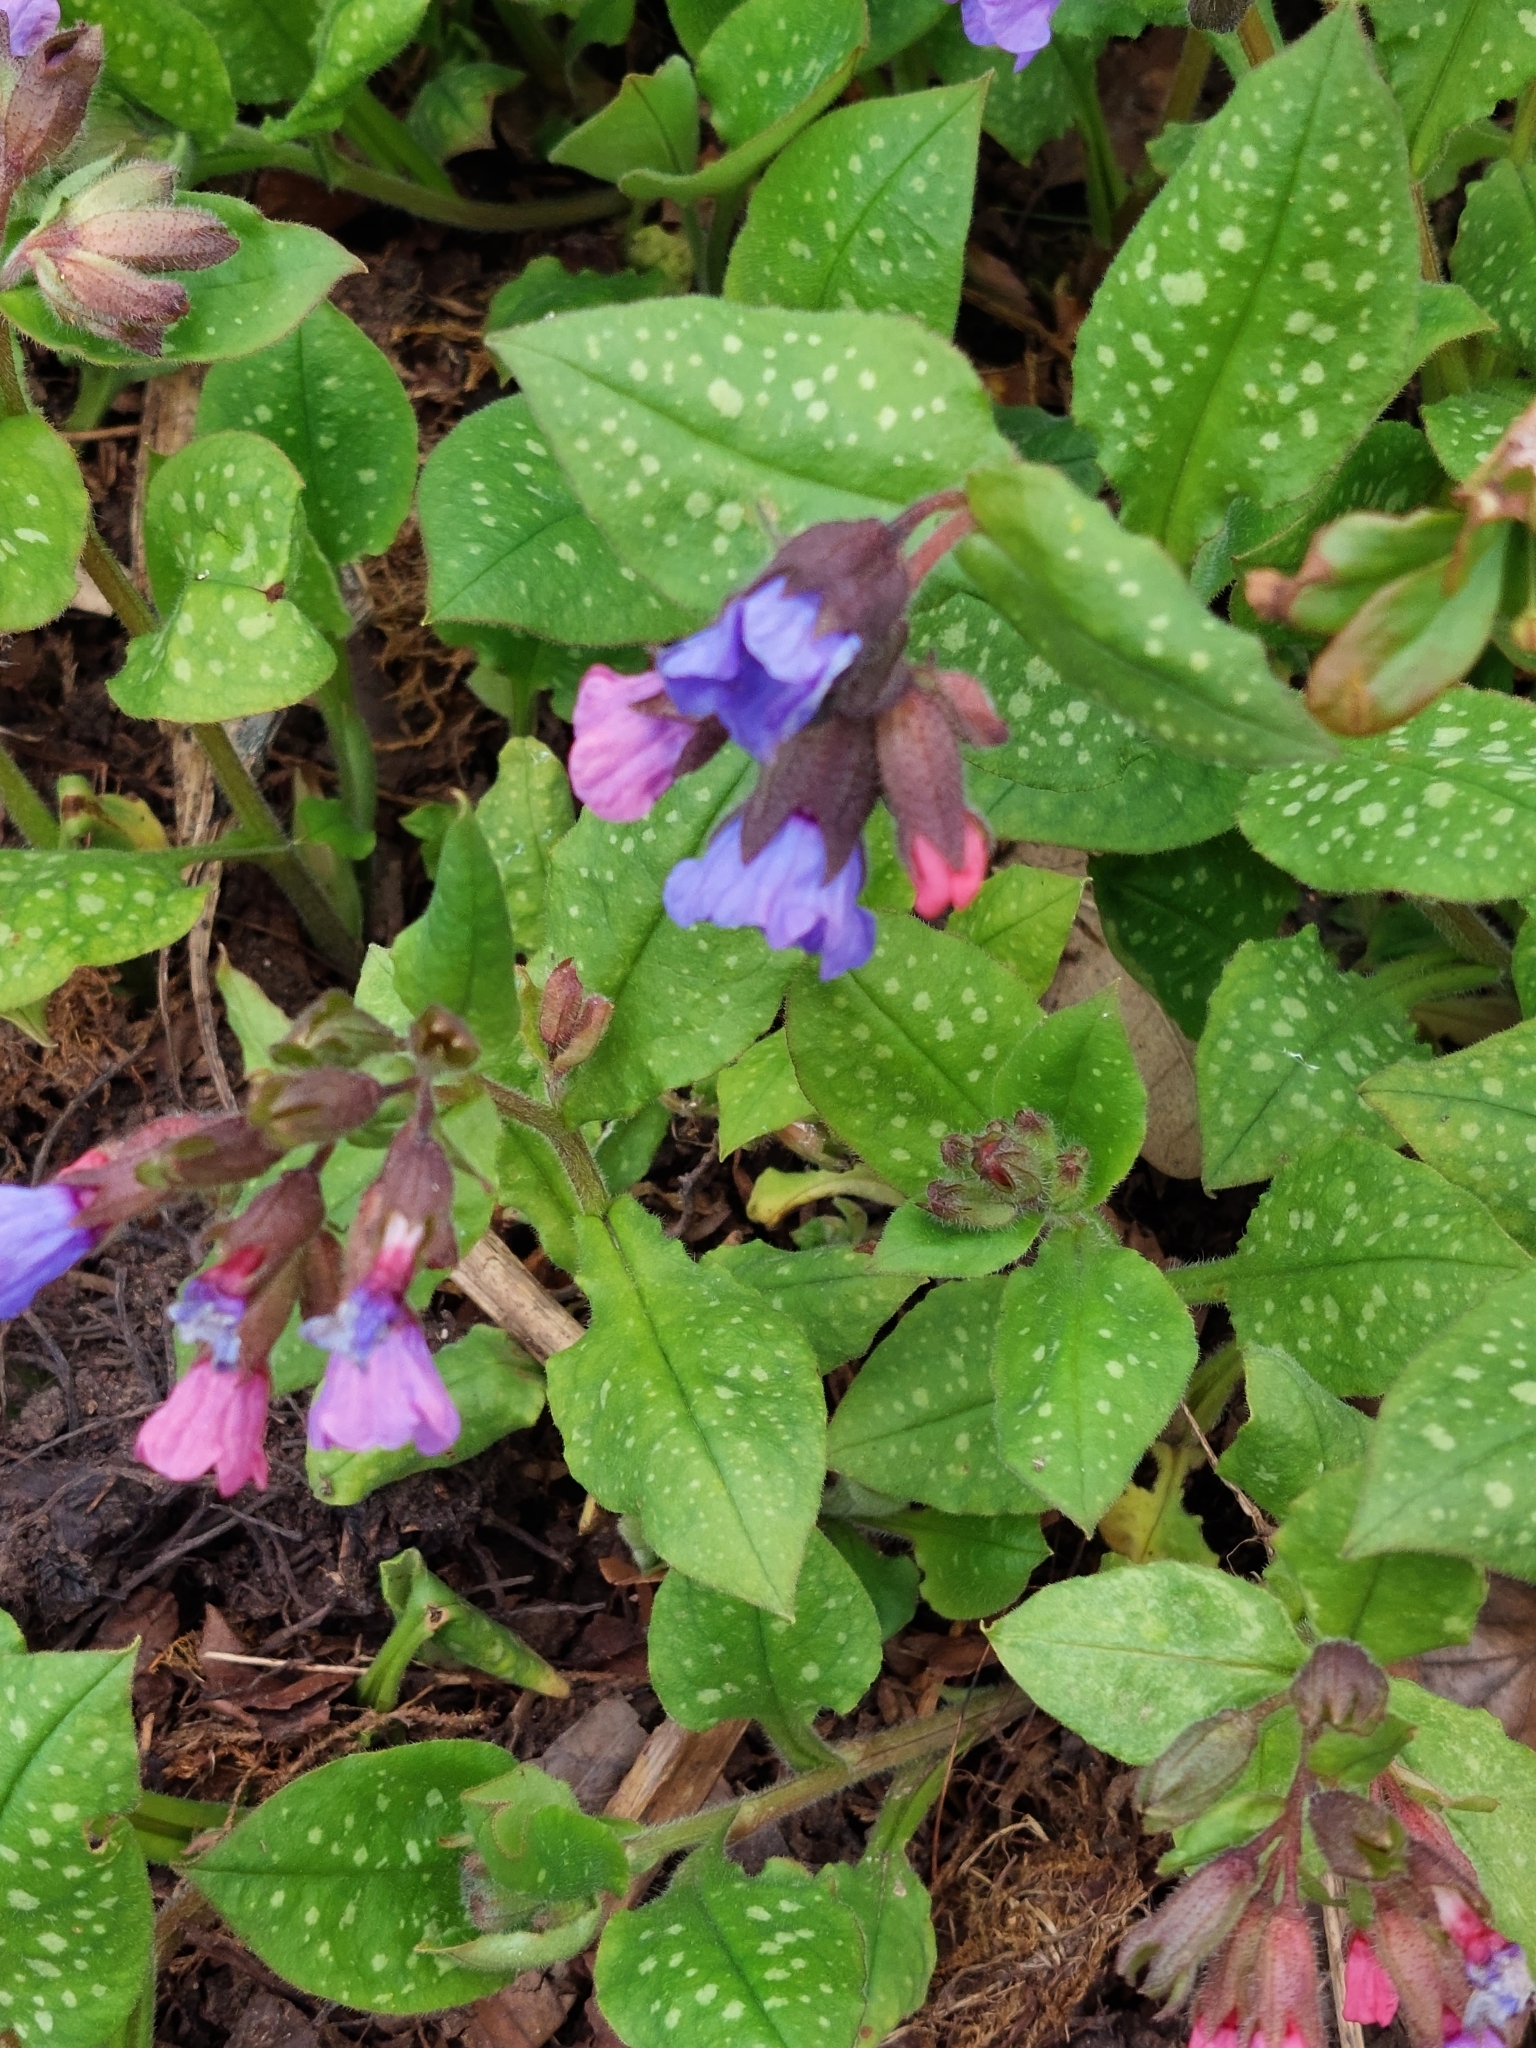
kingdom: Plantae
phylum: Tracheophyta
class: Magnoliopsida
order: Boraginales
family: Boraginaceae
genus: Pulmonaria
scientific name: Pulmonaria officinalis
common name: Lungwort
